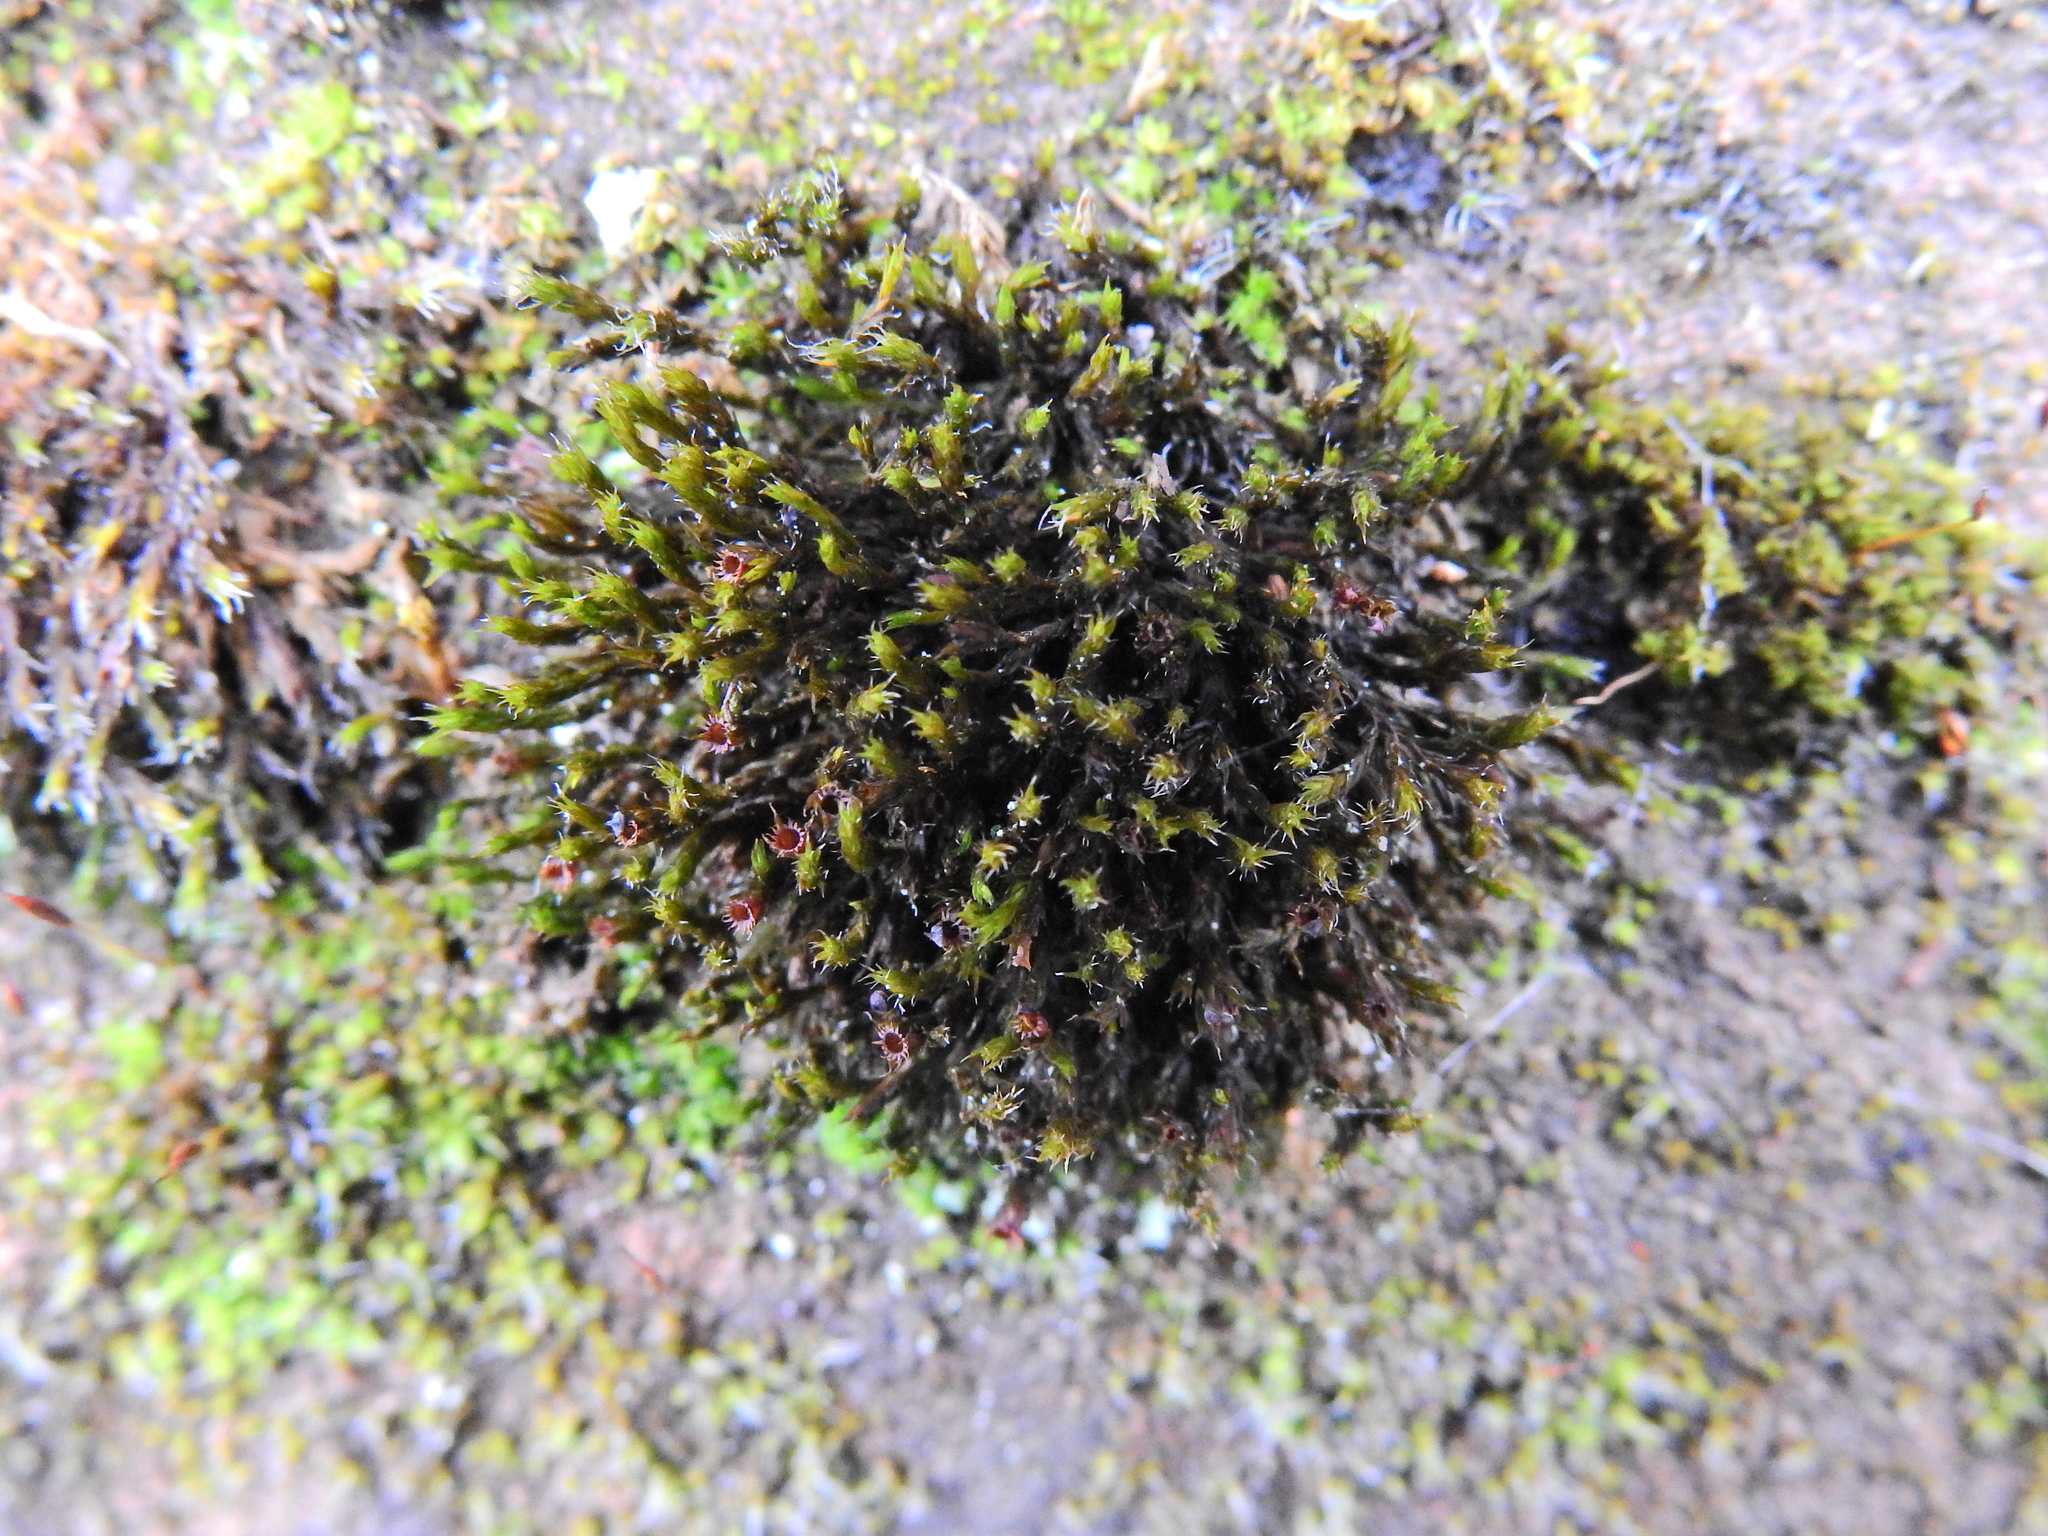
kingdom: Plantae
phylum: Bryophyta
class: Bryopsida
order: Grimmiales
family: Grimmiaceae
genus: Schistidium
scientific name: Schistidium crassipilum
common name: Thickpoint bloom moss
